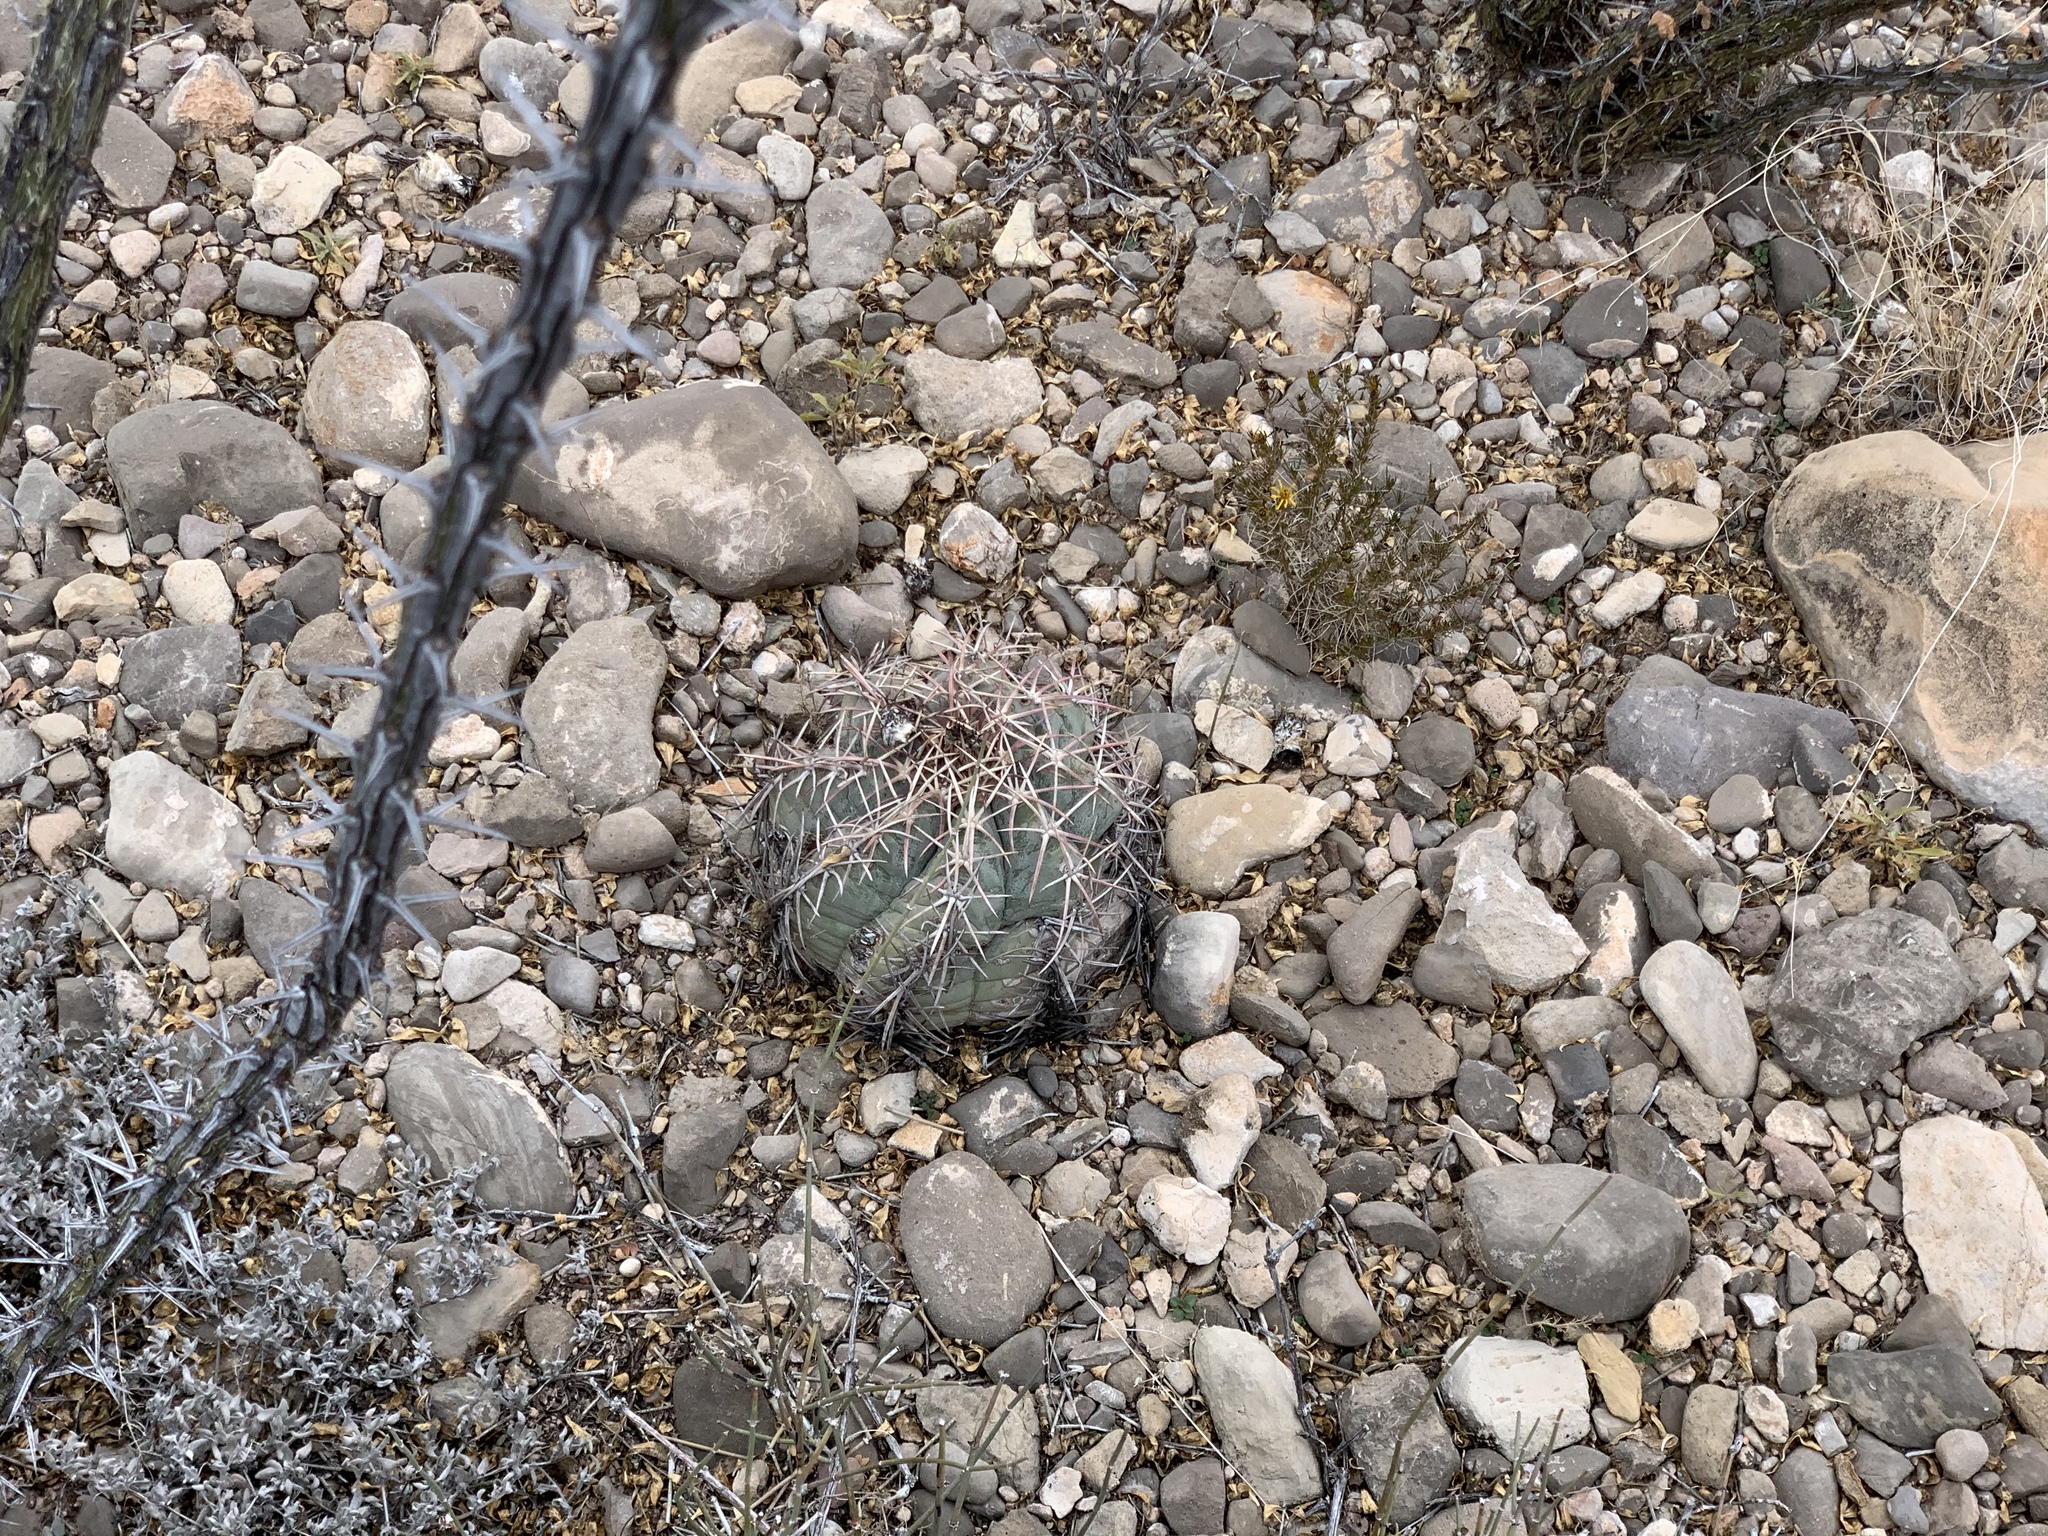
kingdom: Plantae
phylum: Tracheophyta
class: Magnoliopsida
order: Caryophyllales
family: Cactaceae
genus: Echinocactus
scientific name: Echinocactus horizonthalonius
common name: Devilshead
